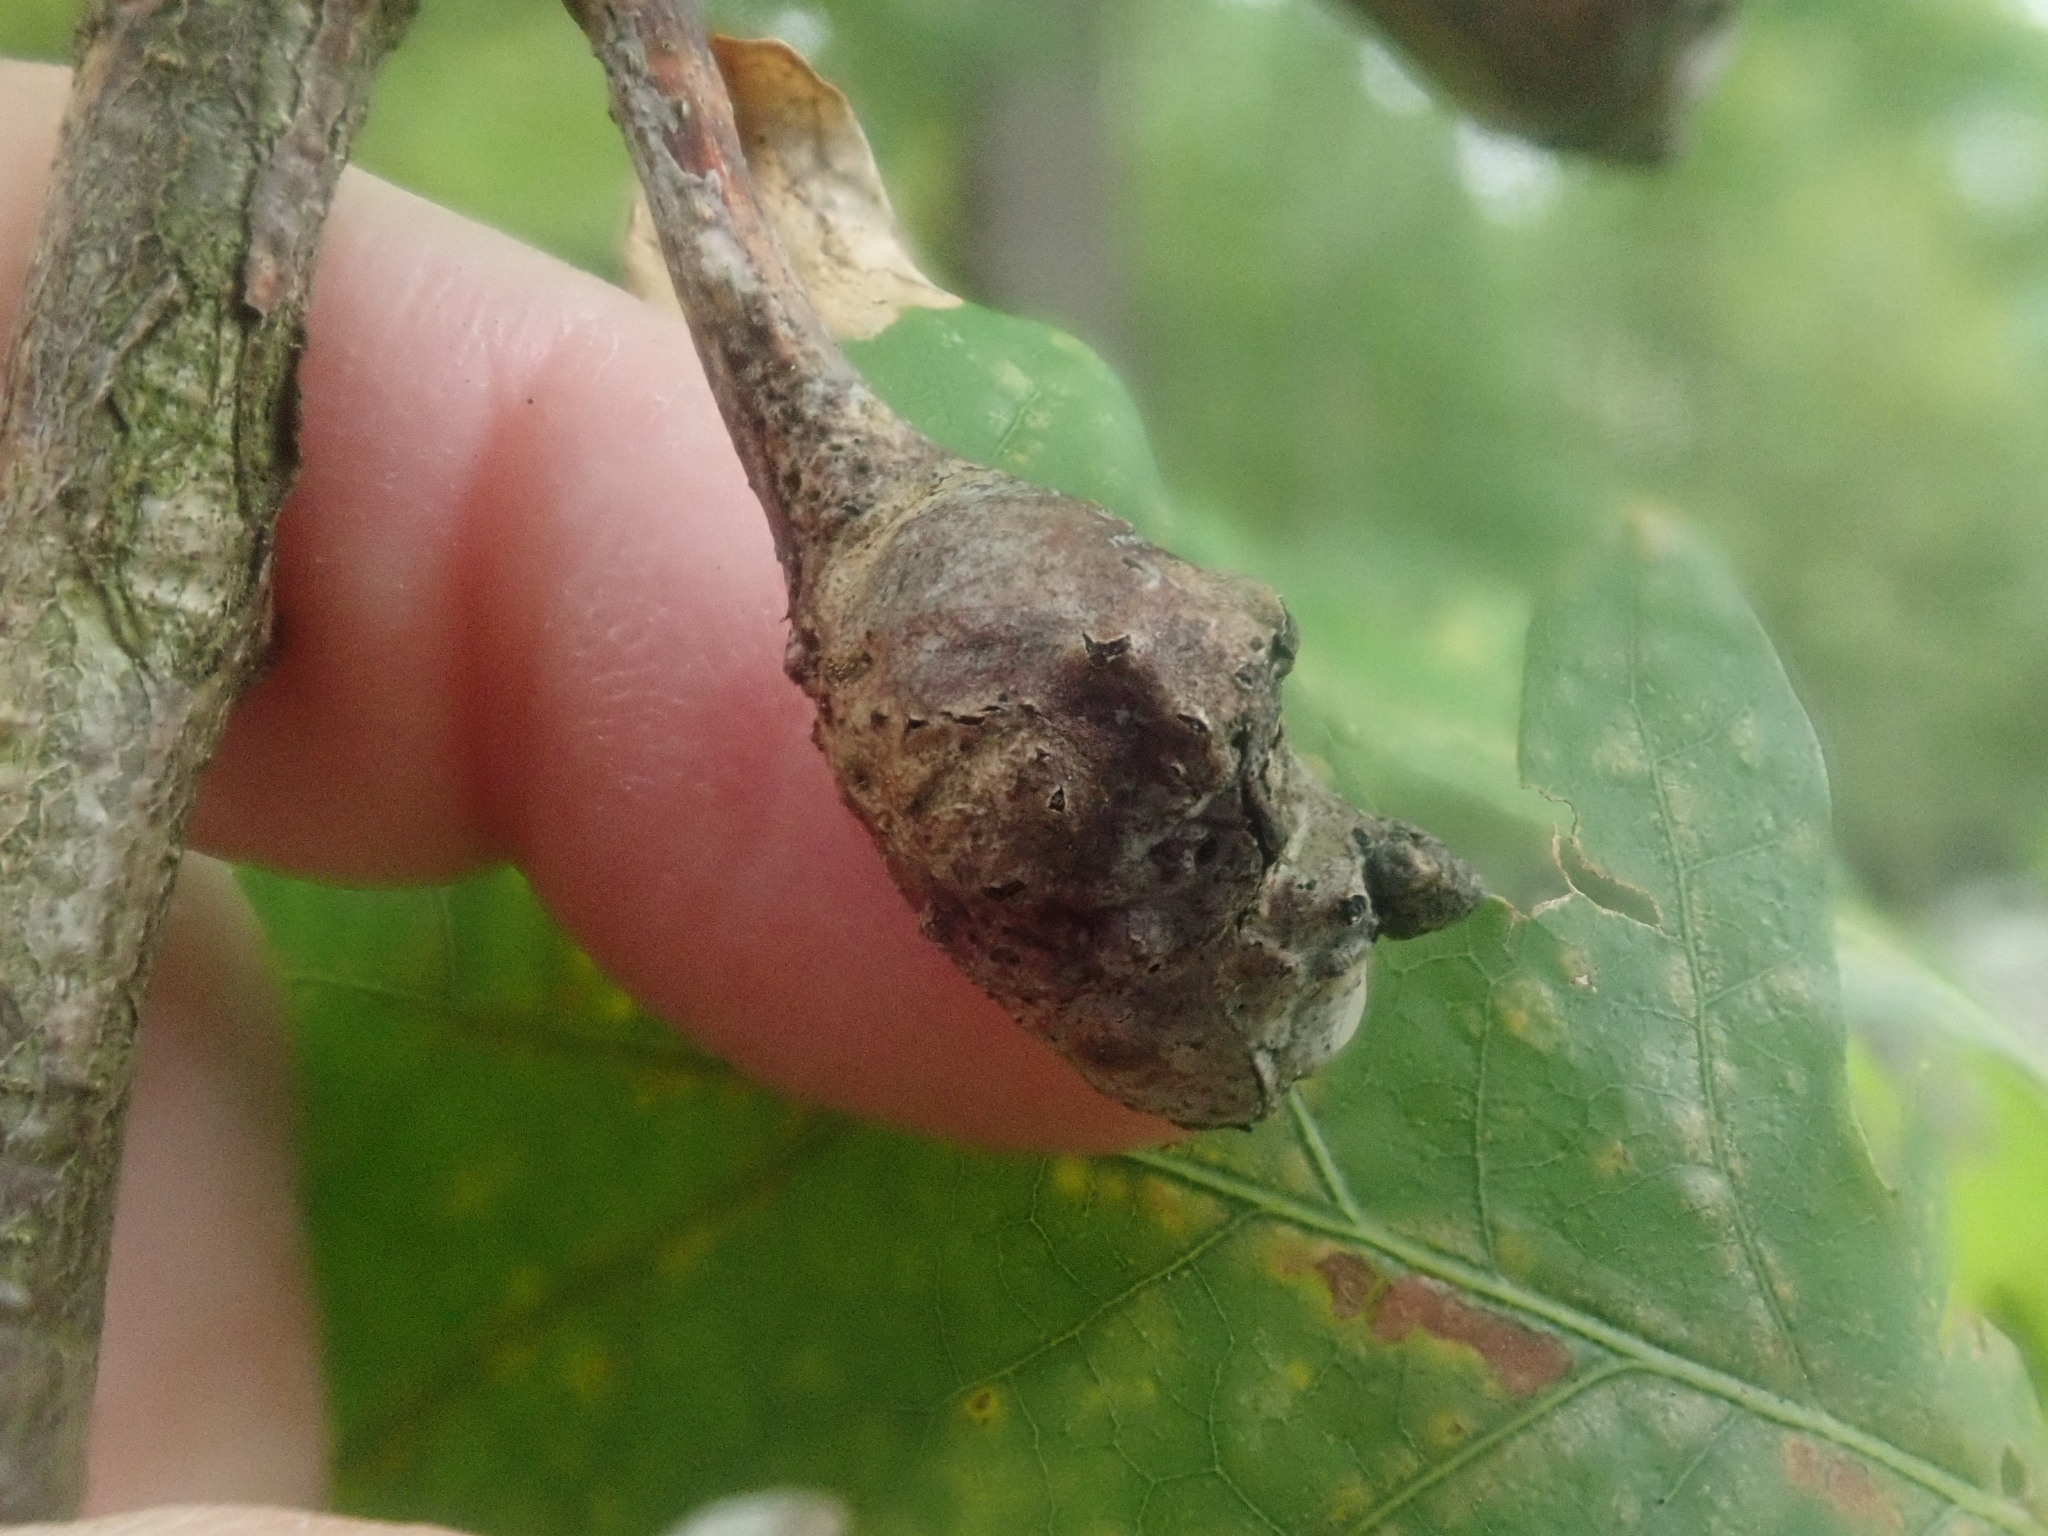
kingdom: Animalia
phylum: Arthropoda
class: Insecta
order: Hymenoptera
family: Cynipidae
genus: Callirhytis
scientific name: Callirhytis clavula
